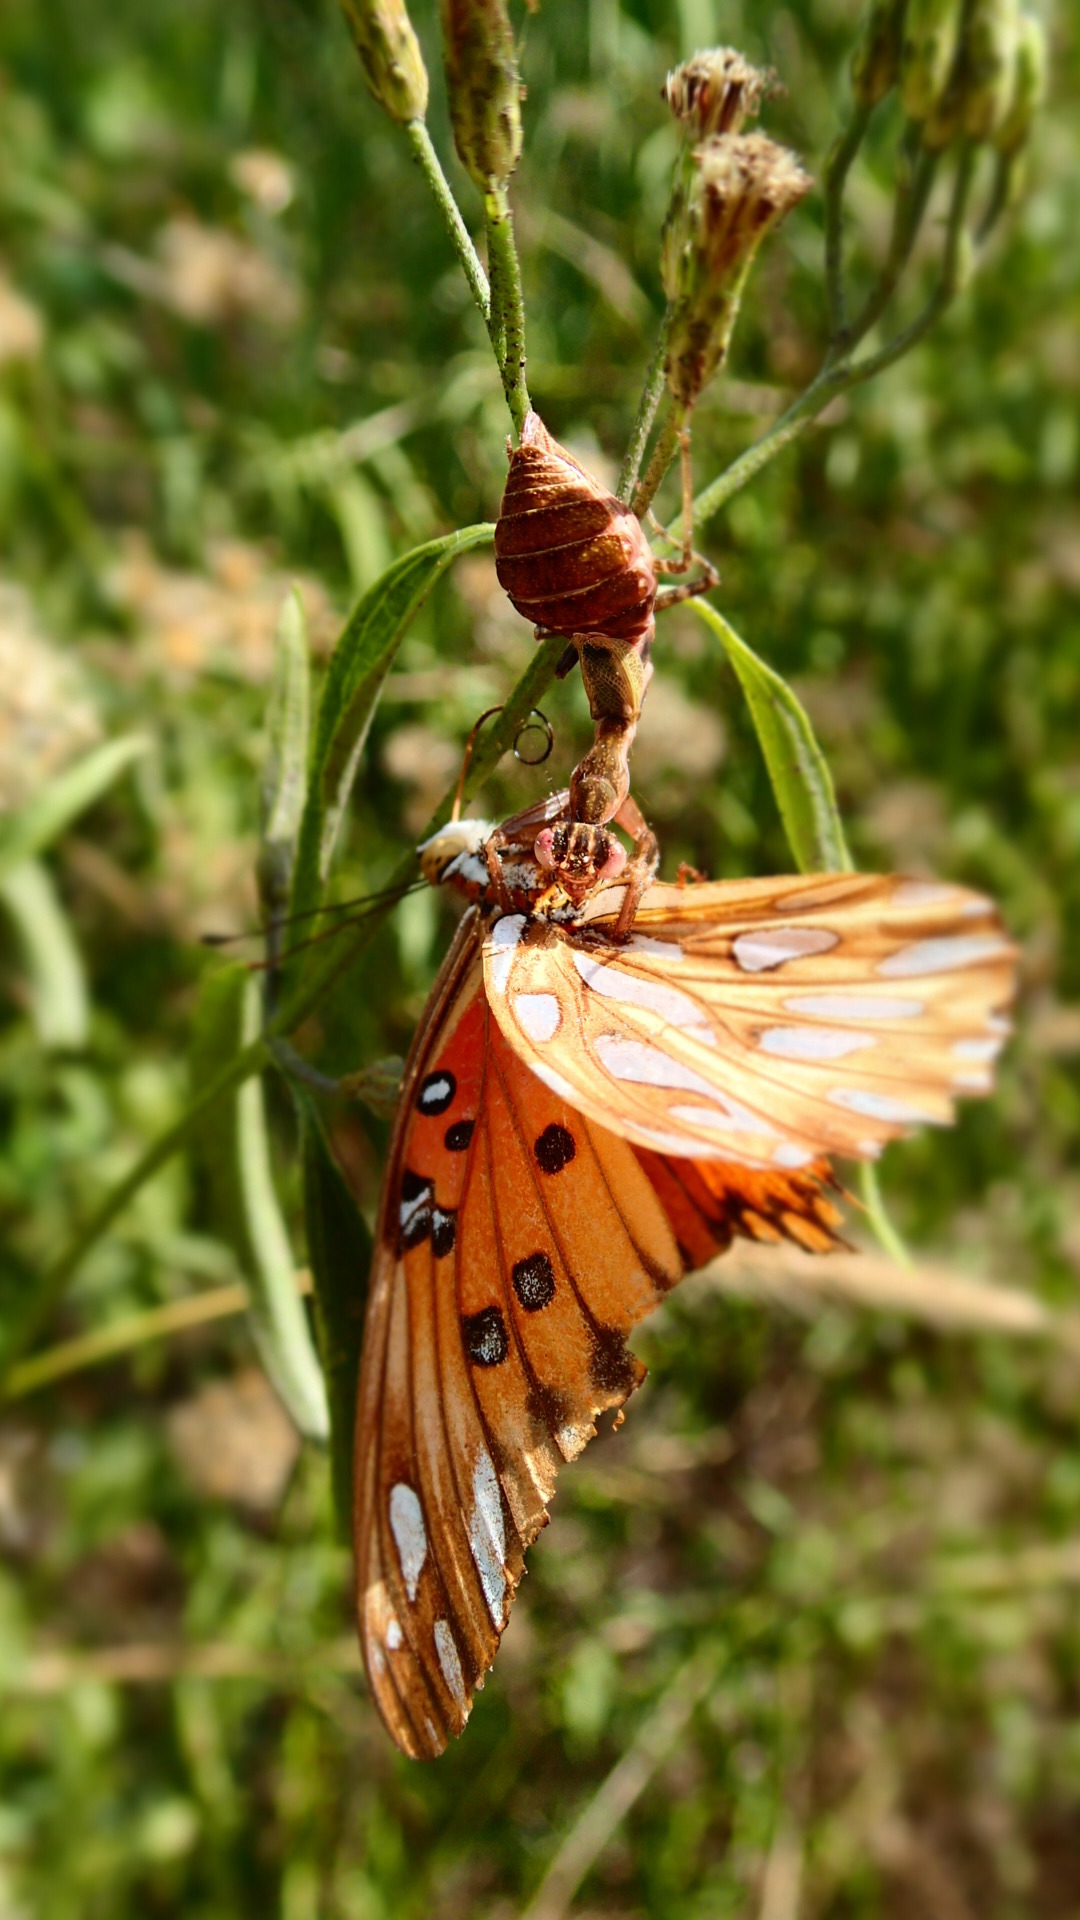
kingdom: Animalia
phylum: Arthropoda
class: Insecta
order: Lepidoptera
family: Nymphalidae
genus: Dione
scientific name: Dione vanillae
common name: Gulf fritillary
